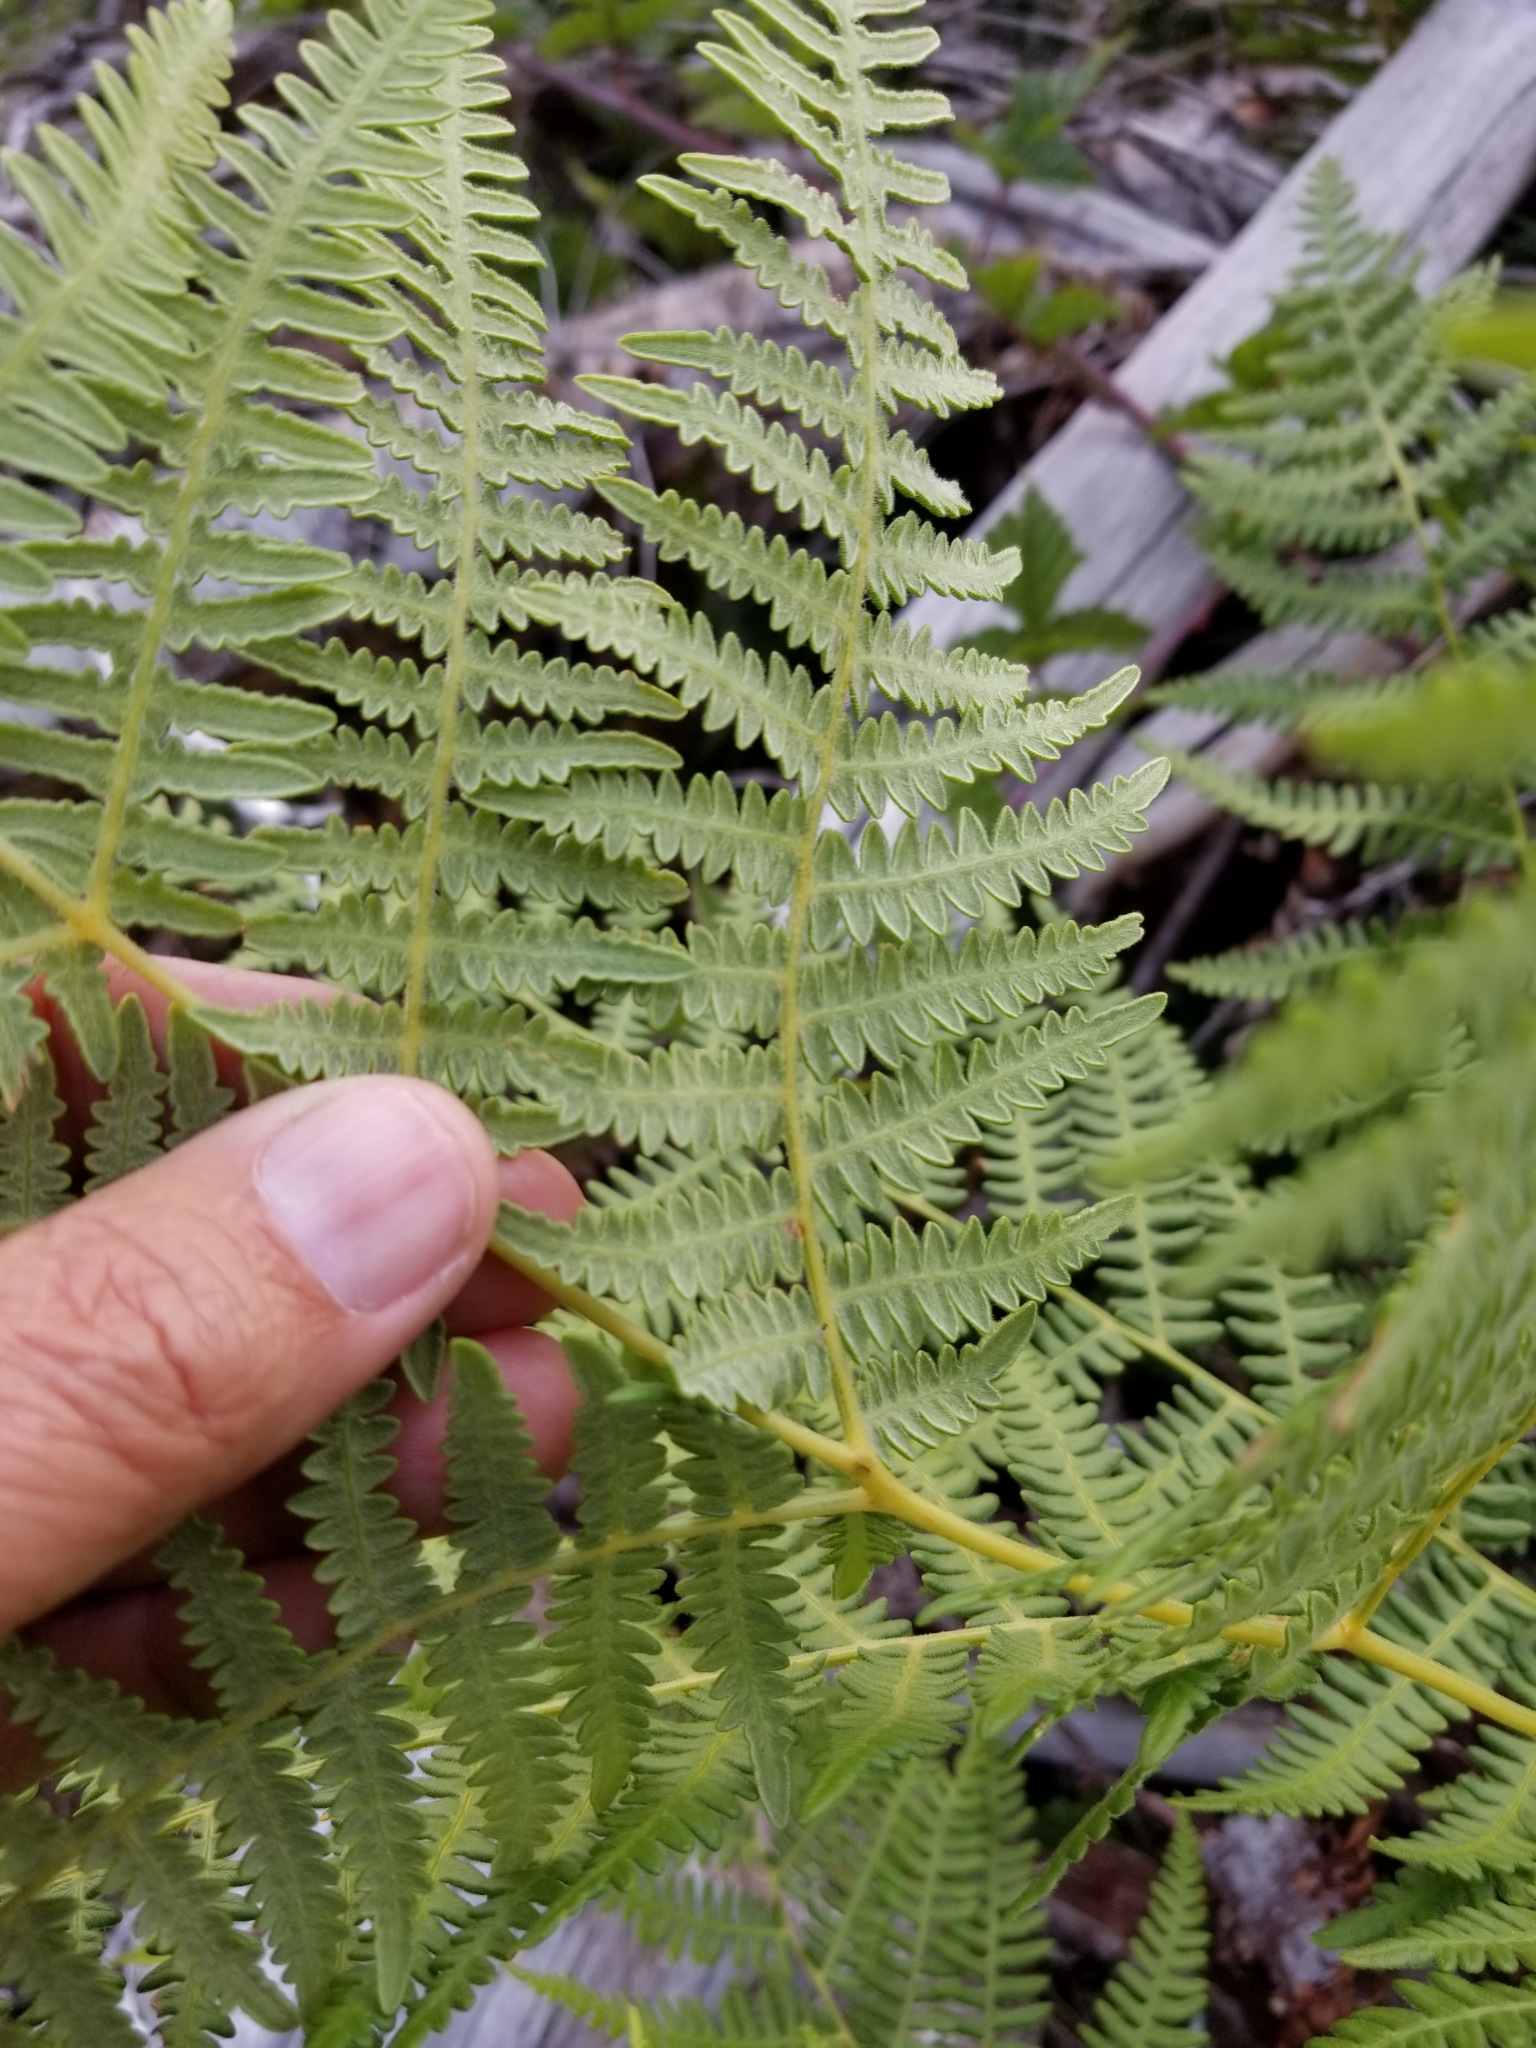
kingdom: Plantae
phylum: Tracheophyta
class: Polypodiopsida
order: Polypodiales
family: Dennstaedtiaceae
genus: Pteridium
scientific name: Pteridium aquilinum
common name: Bracken
